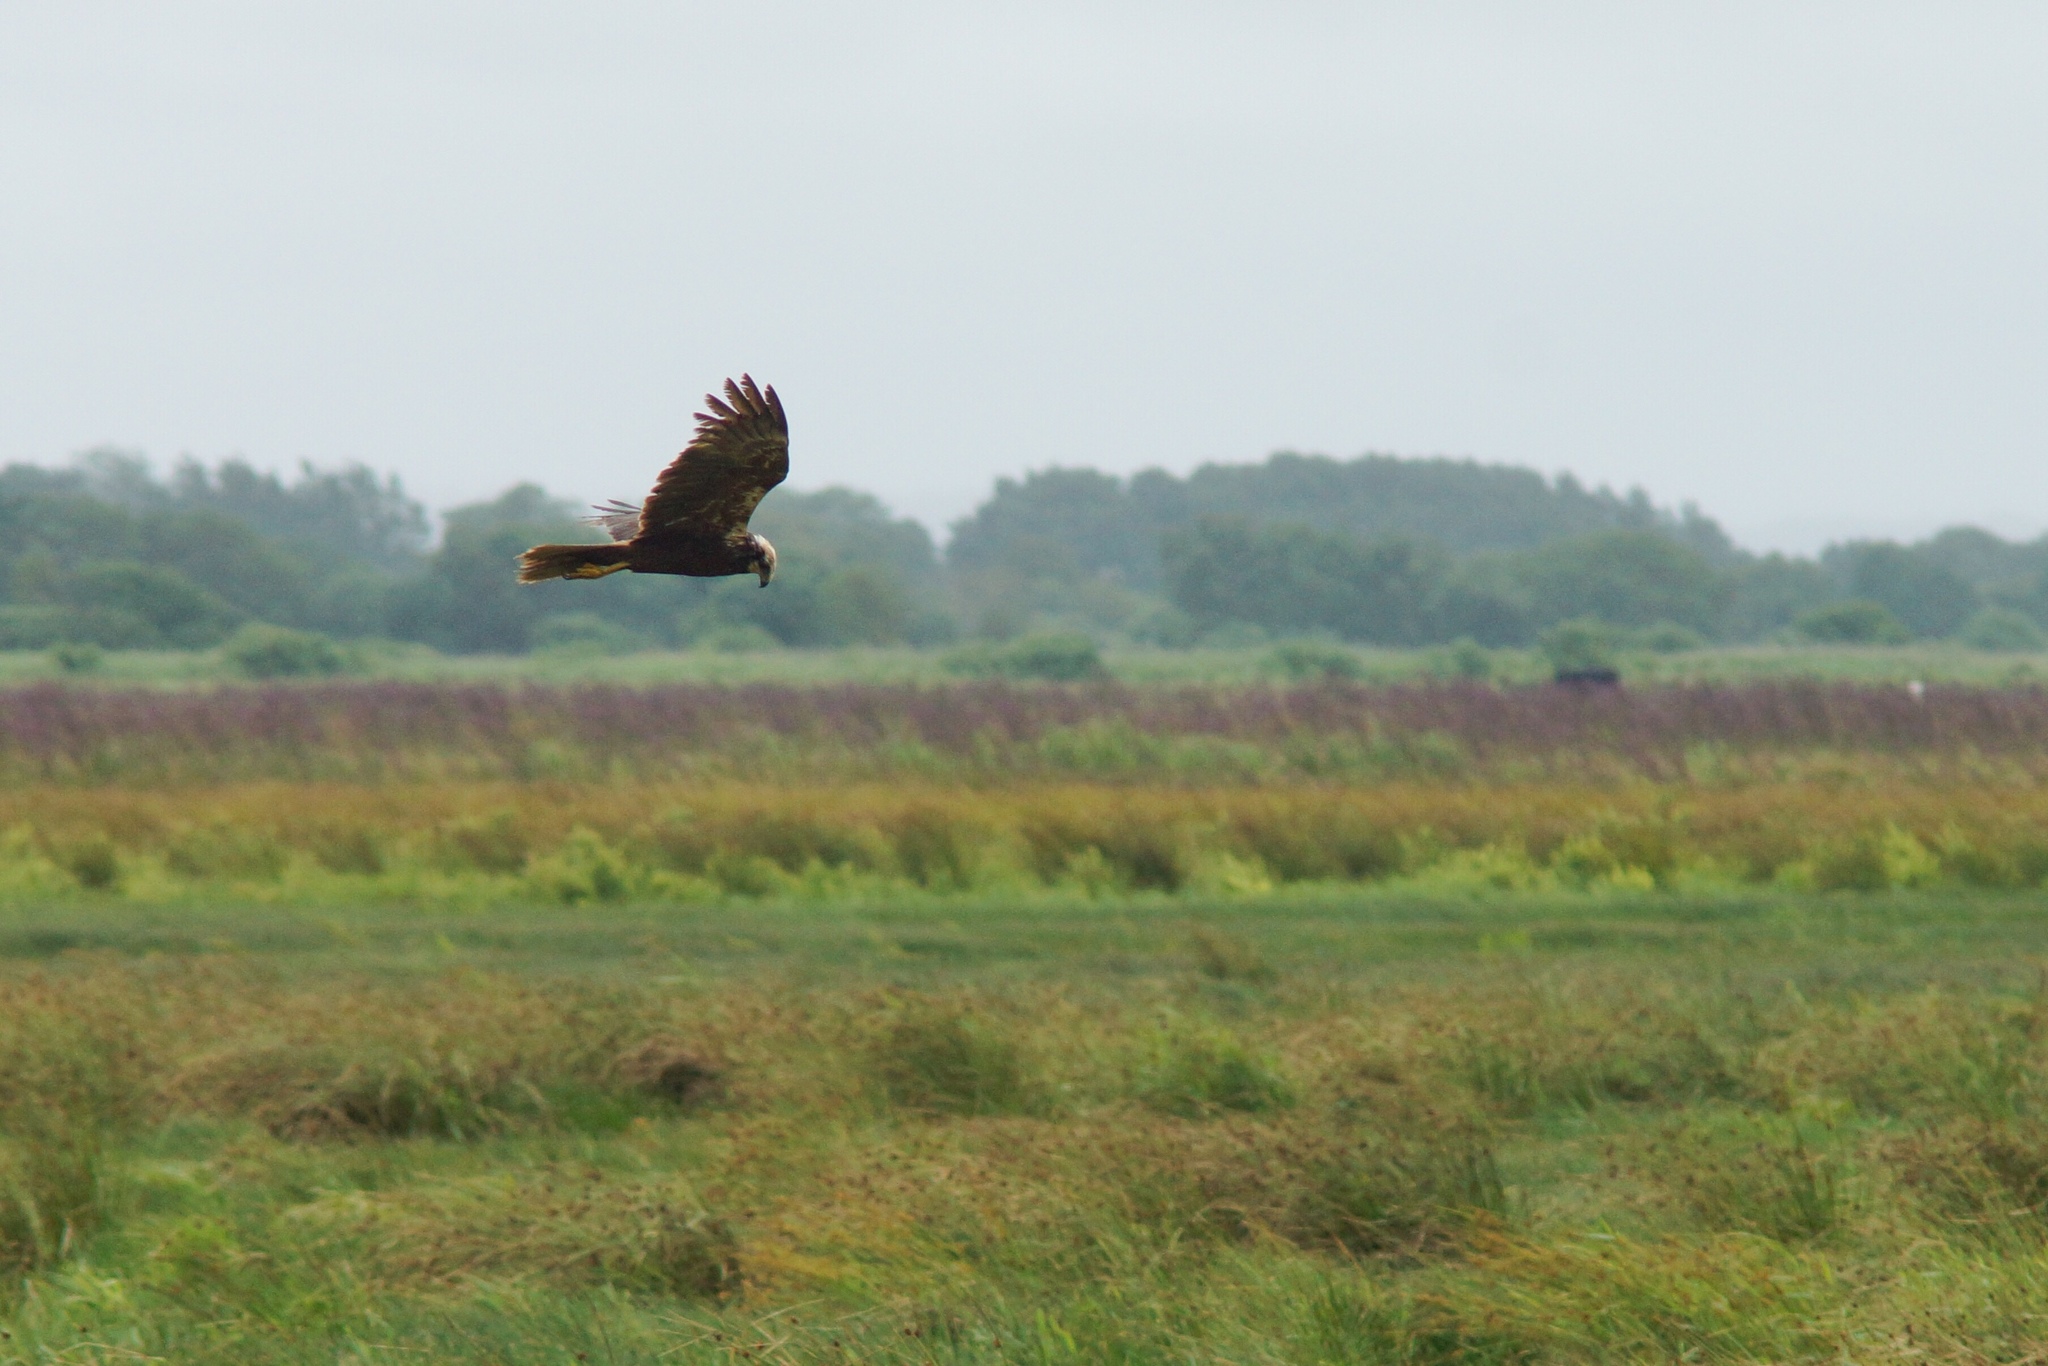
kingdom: Animalia
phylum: Chordata
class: Aves
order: Accipitriformes
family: Accipitridae
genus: Circus
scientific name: Circus aeruginosus
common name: Western marsh harrier
